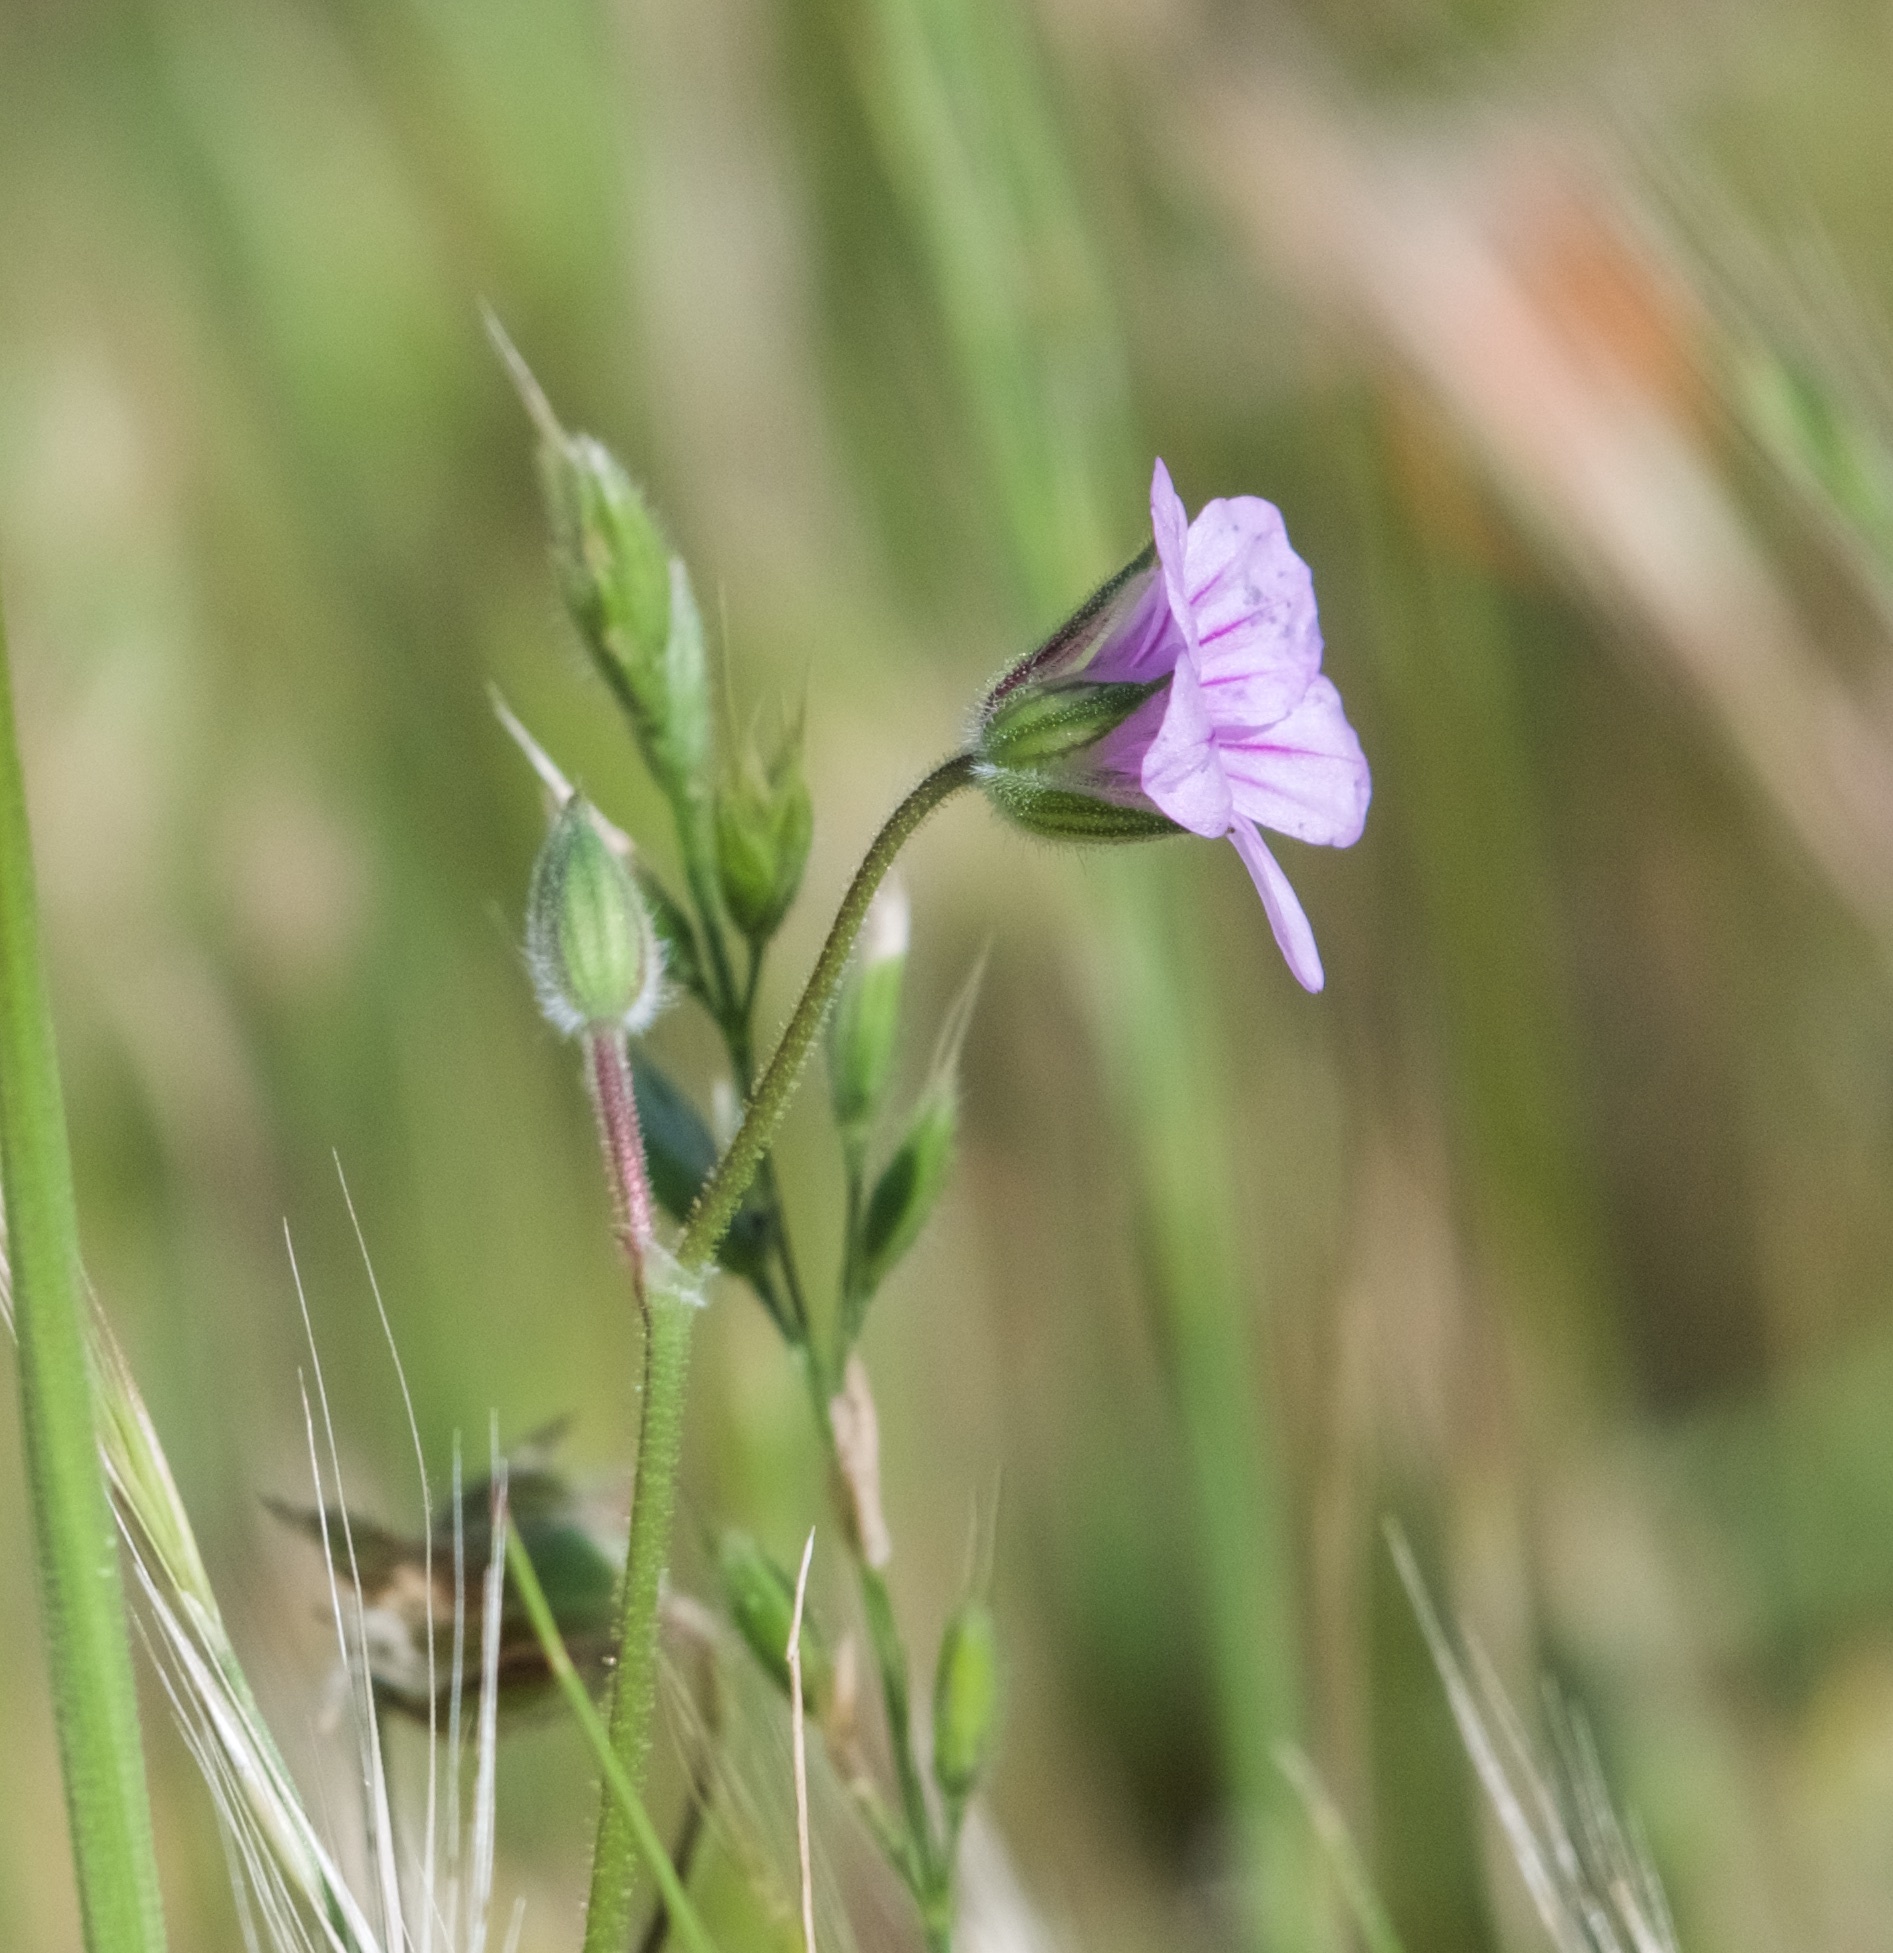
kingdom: Plantae
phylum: Tracheophyta
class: Magnoliopsida
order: Geraniales
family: Geraniaceae
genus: Erodium
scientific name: Erodium botrys
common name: Mediterranean stork's-bill
